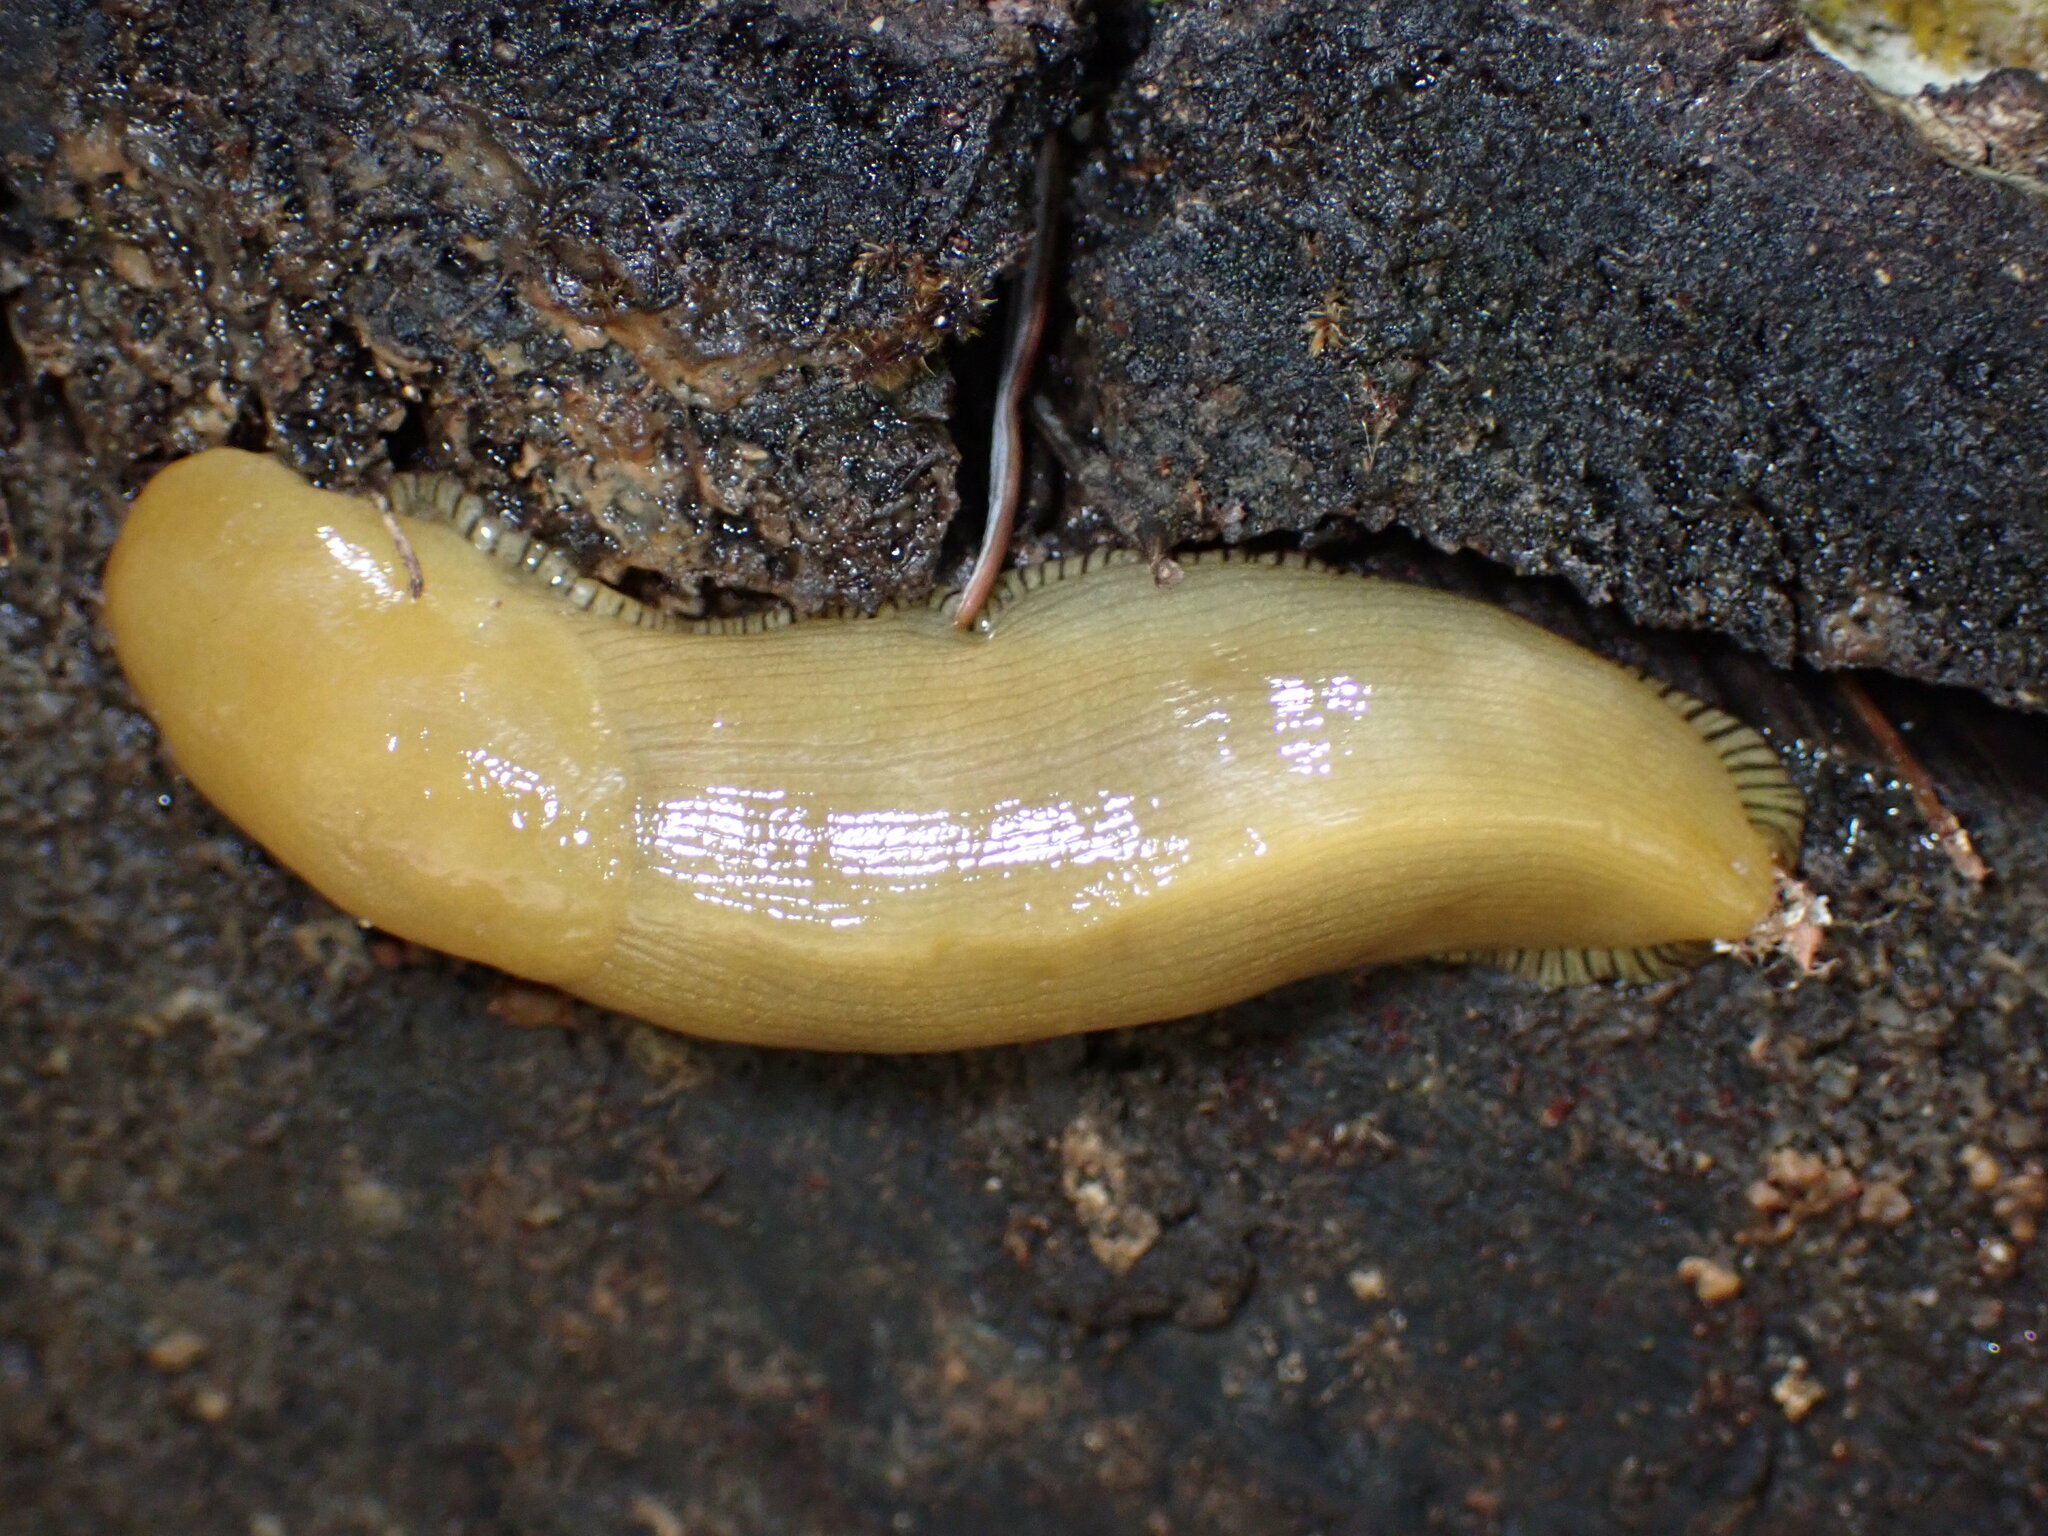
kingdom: Animalia
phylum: Mollusca
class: Gastropoda
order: Stylommatophora
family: Ariolimacidae
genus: Ariolimax
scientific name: Ariolimax buttoni
